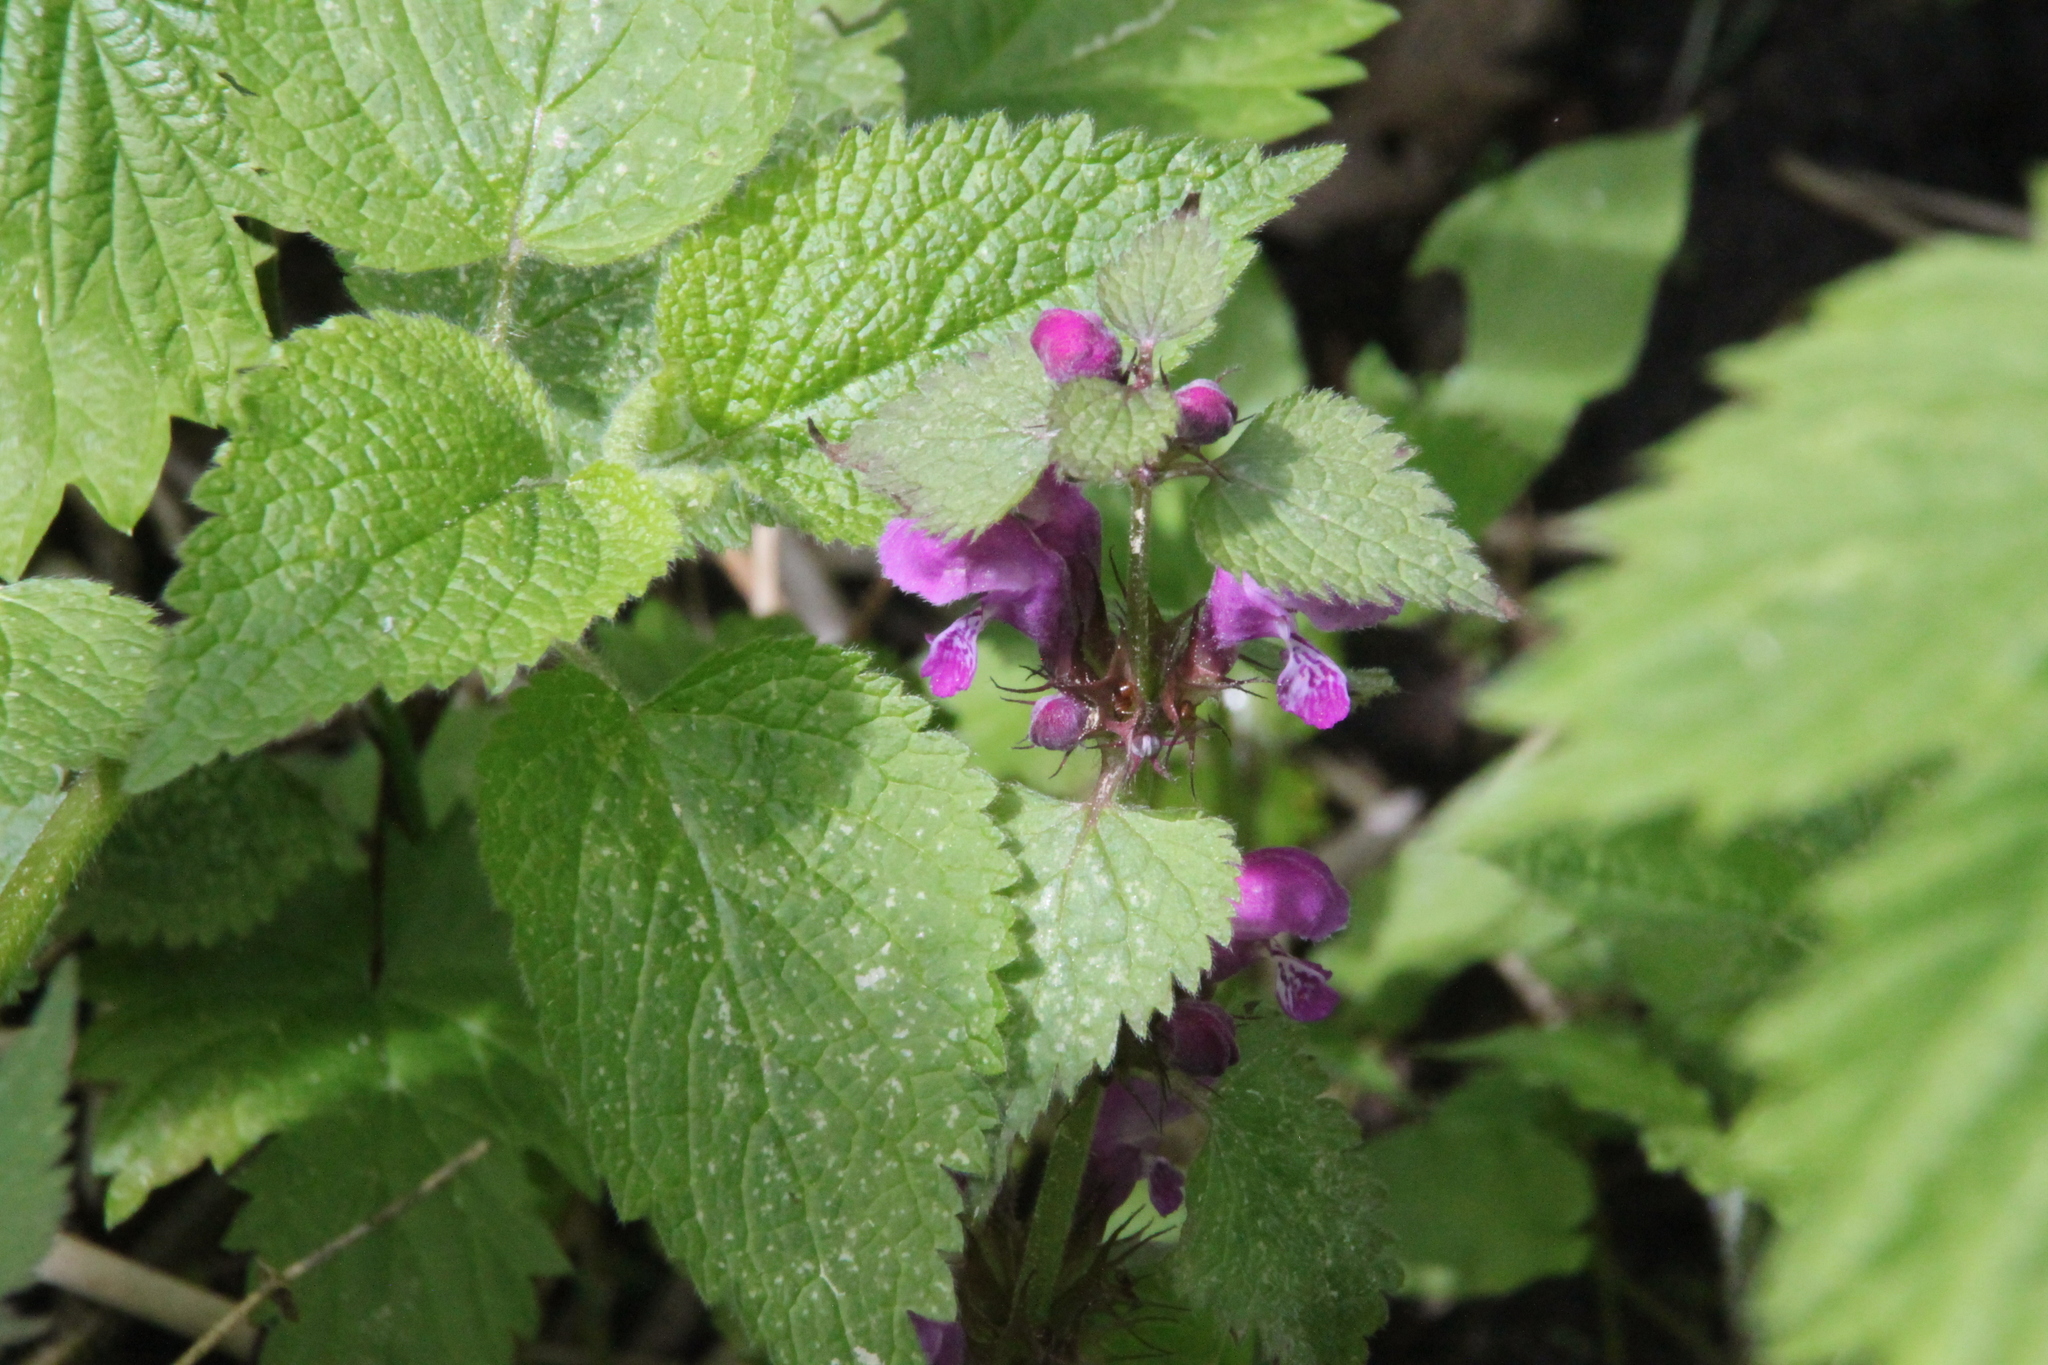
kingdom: Plantae
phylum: Tracheophyta
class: Magnoliopsida
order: Lamiales
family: Lamiaceae
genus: Lamium
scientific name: Lamium maculatum
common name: Spotted dead-nettle
